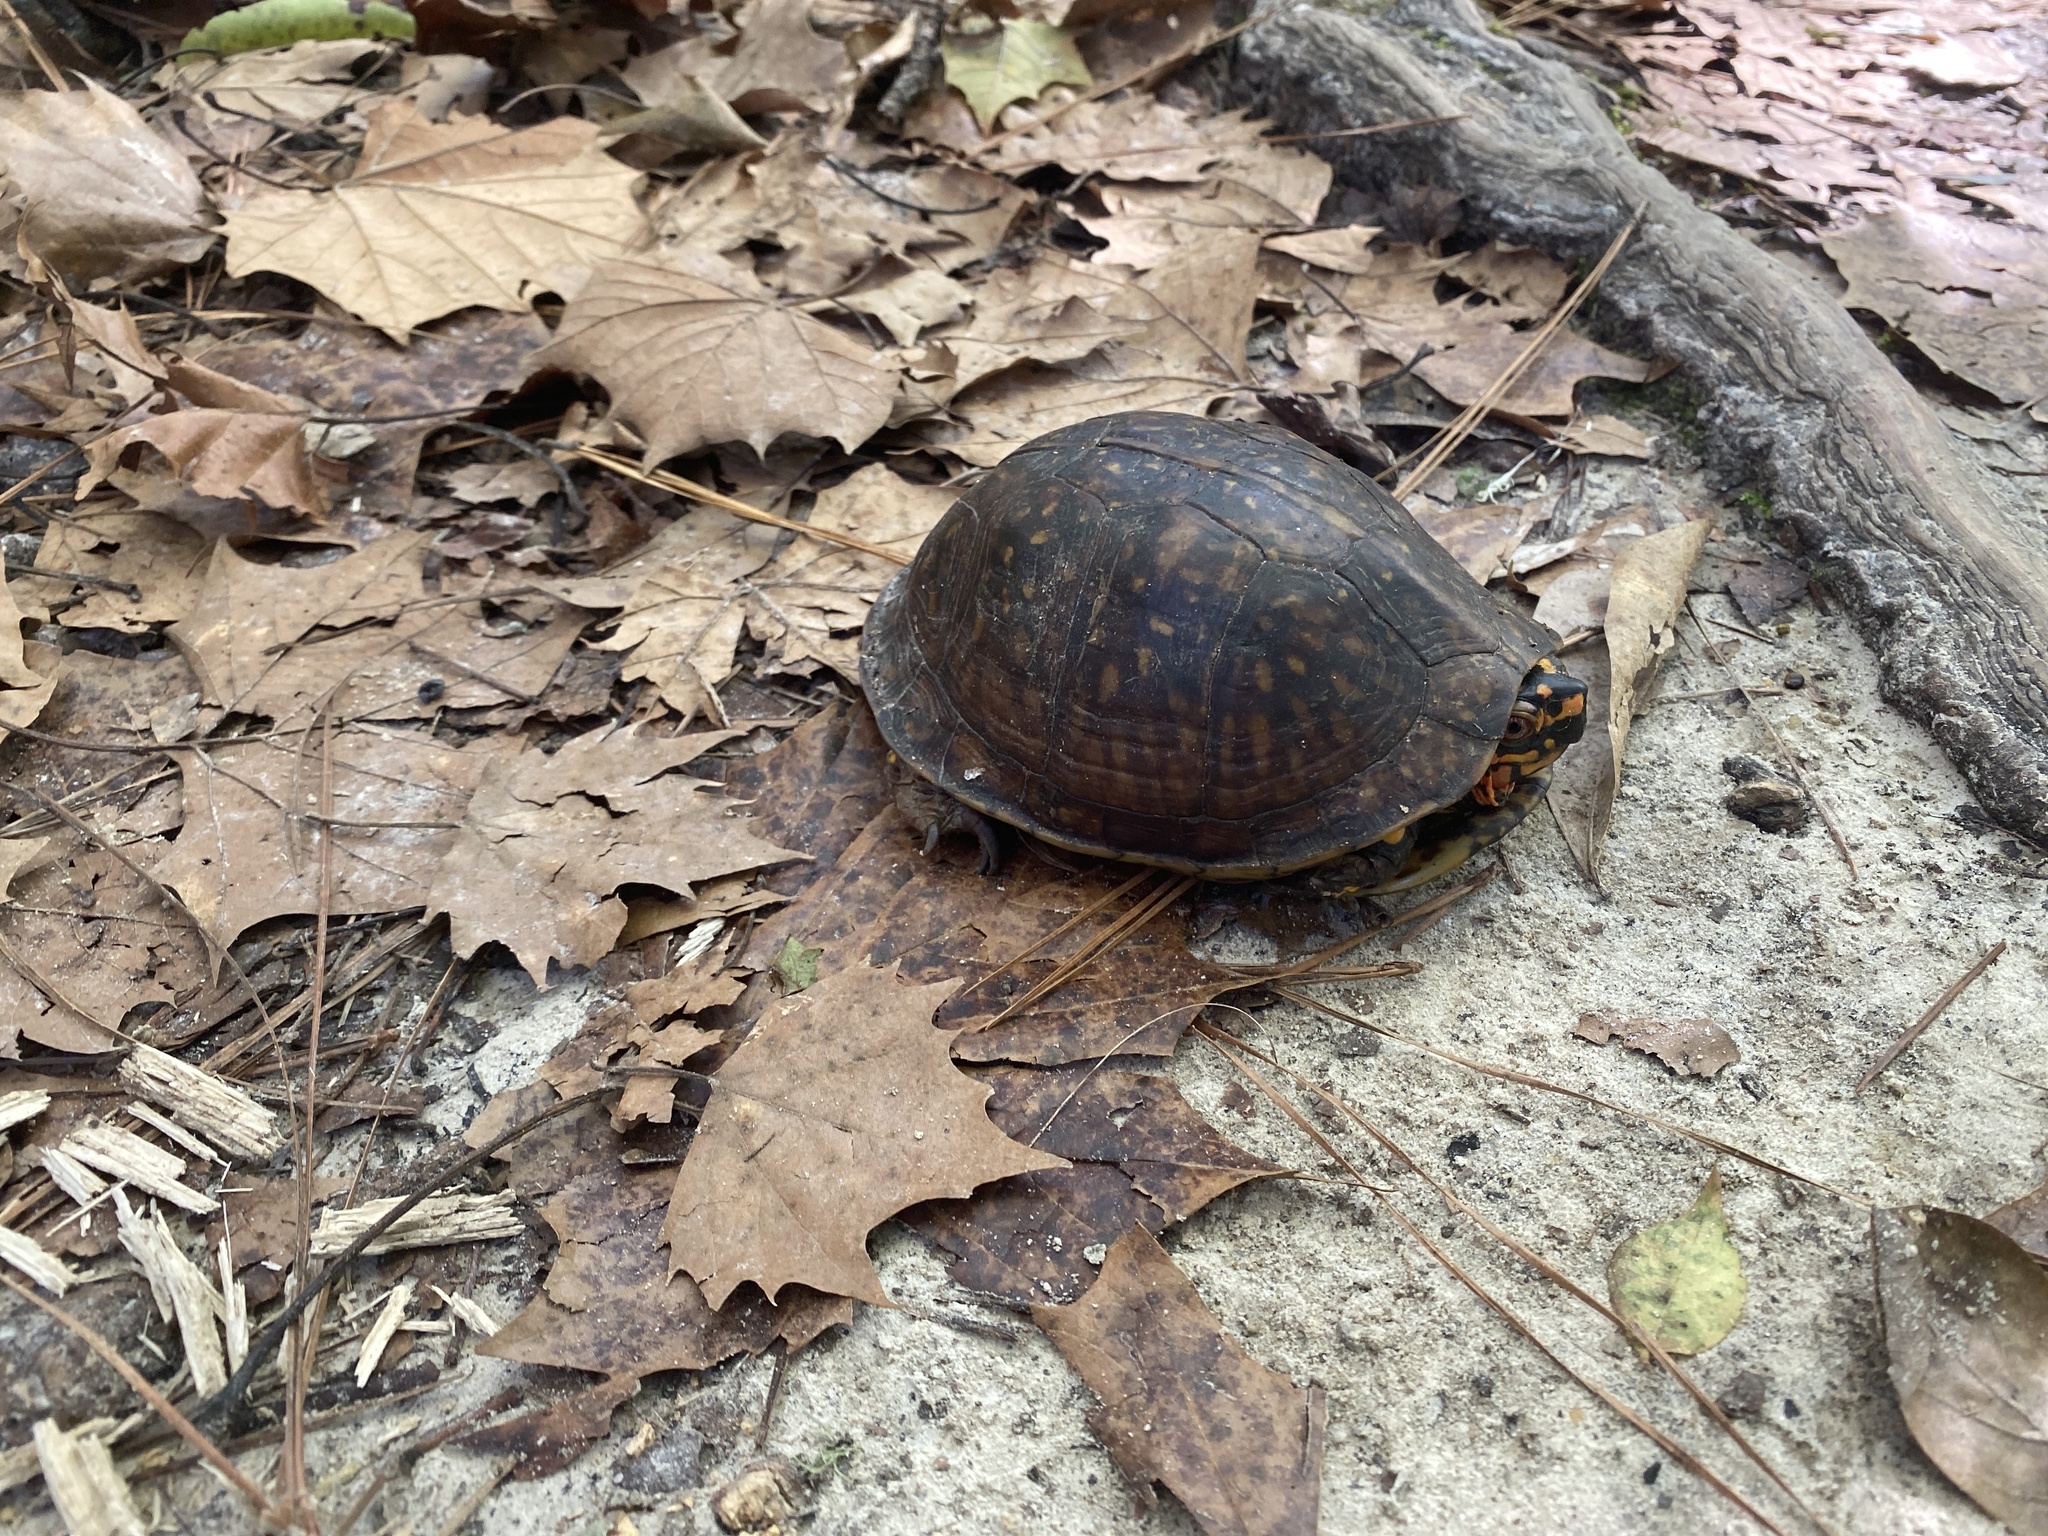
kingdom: Animalia
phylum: Chordata
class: Testudines
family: Emydidae
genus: Terrapene
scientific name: Terrapene carolina
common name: Common box turtle
